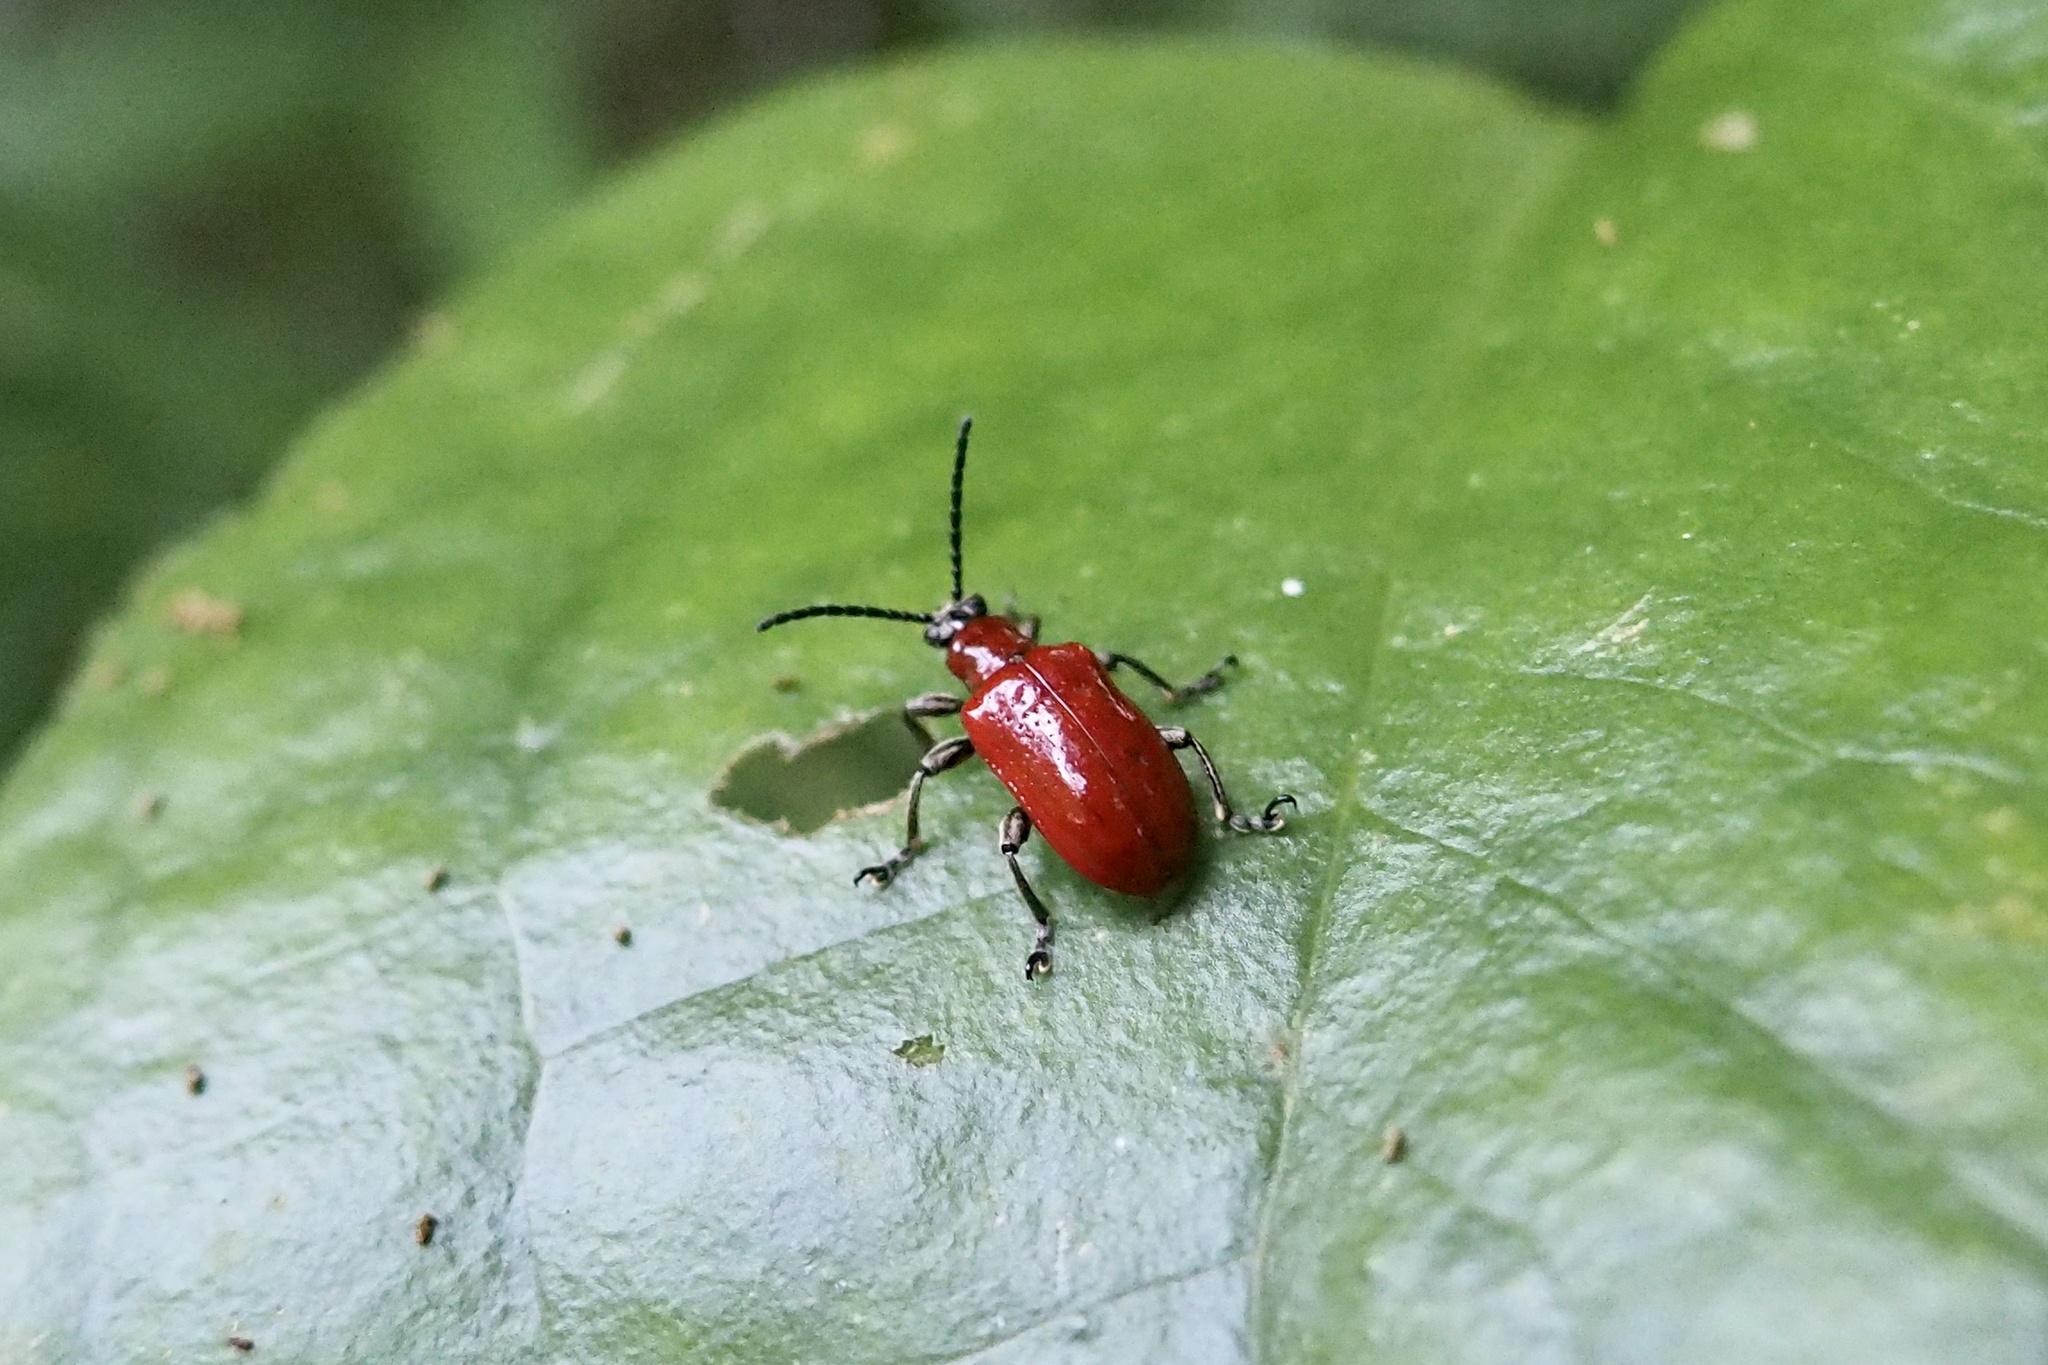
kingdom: Animalia
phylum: Arthropoda
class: Insecta
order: Coleoptera
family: Chrysomelidae
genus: Lilioceris
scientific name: Lilioceris subpolita
